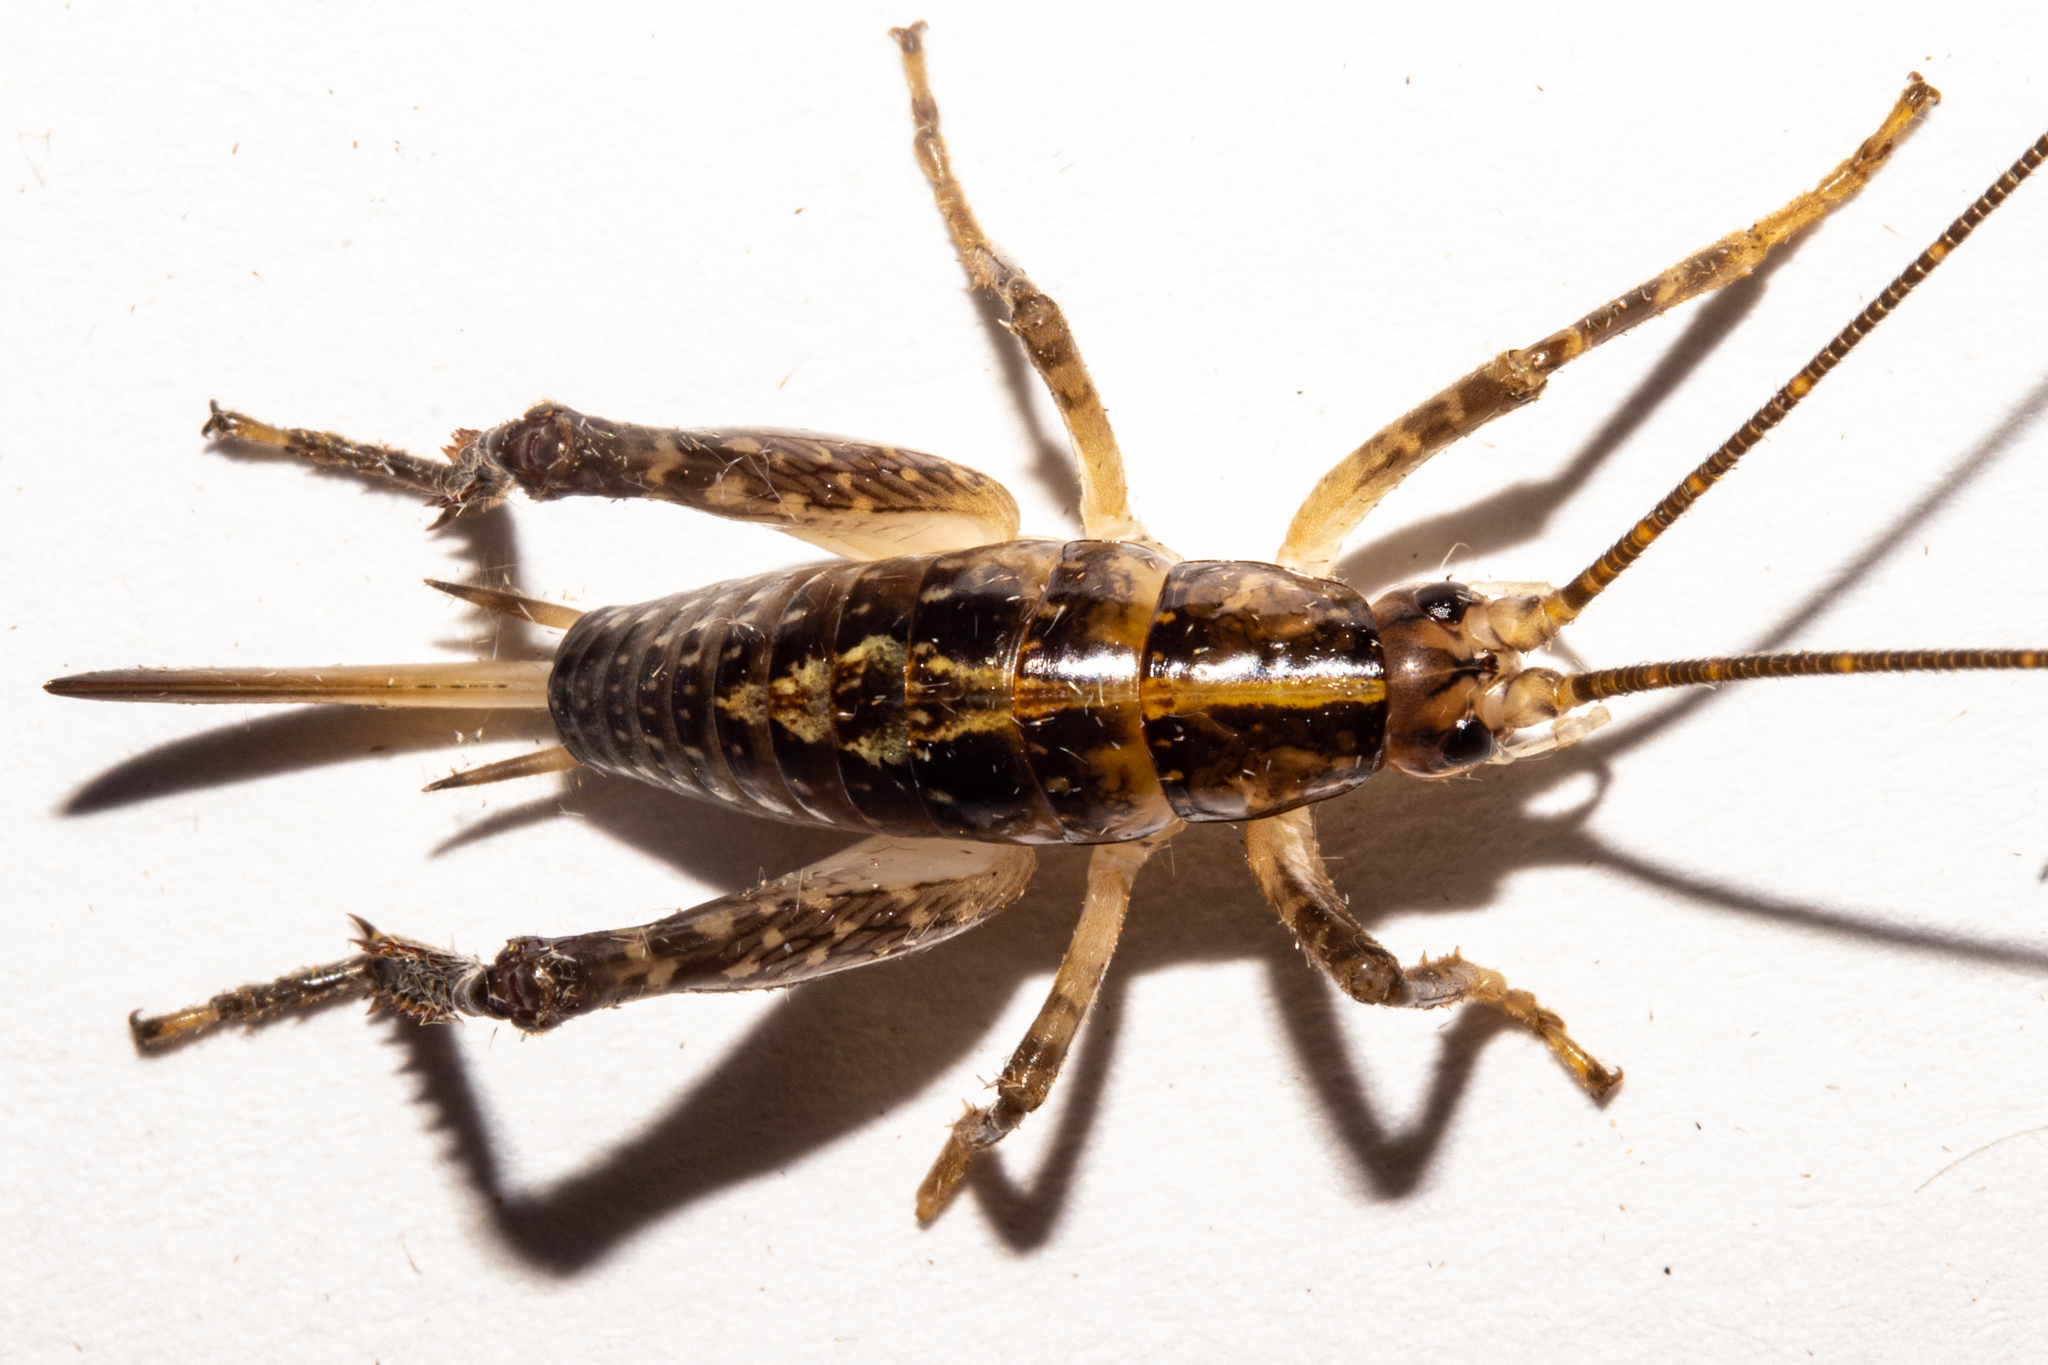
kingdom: Animalia
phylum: Arthropoda
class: Insecta
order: Orthoptera
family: Rhaphidophoridae
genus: Talitropsis
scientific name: Talitropsis sedilloti
